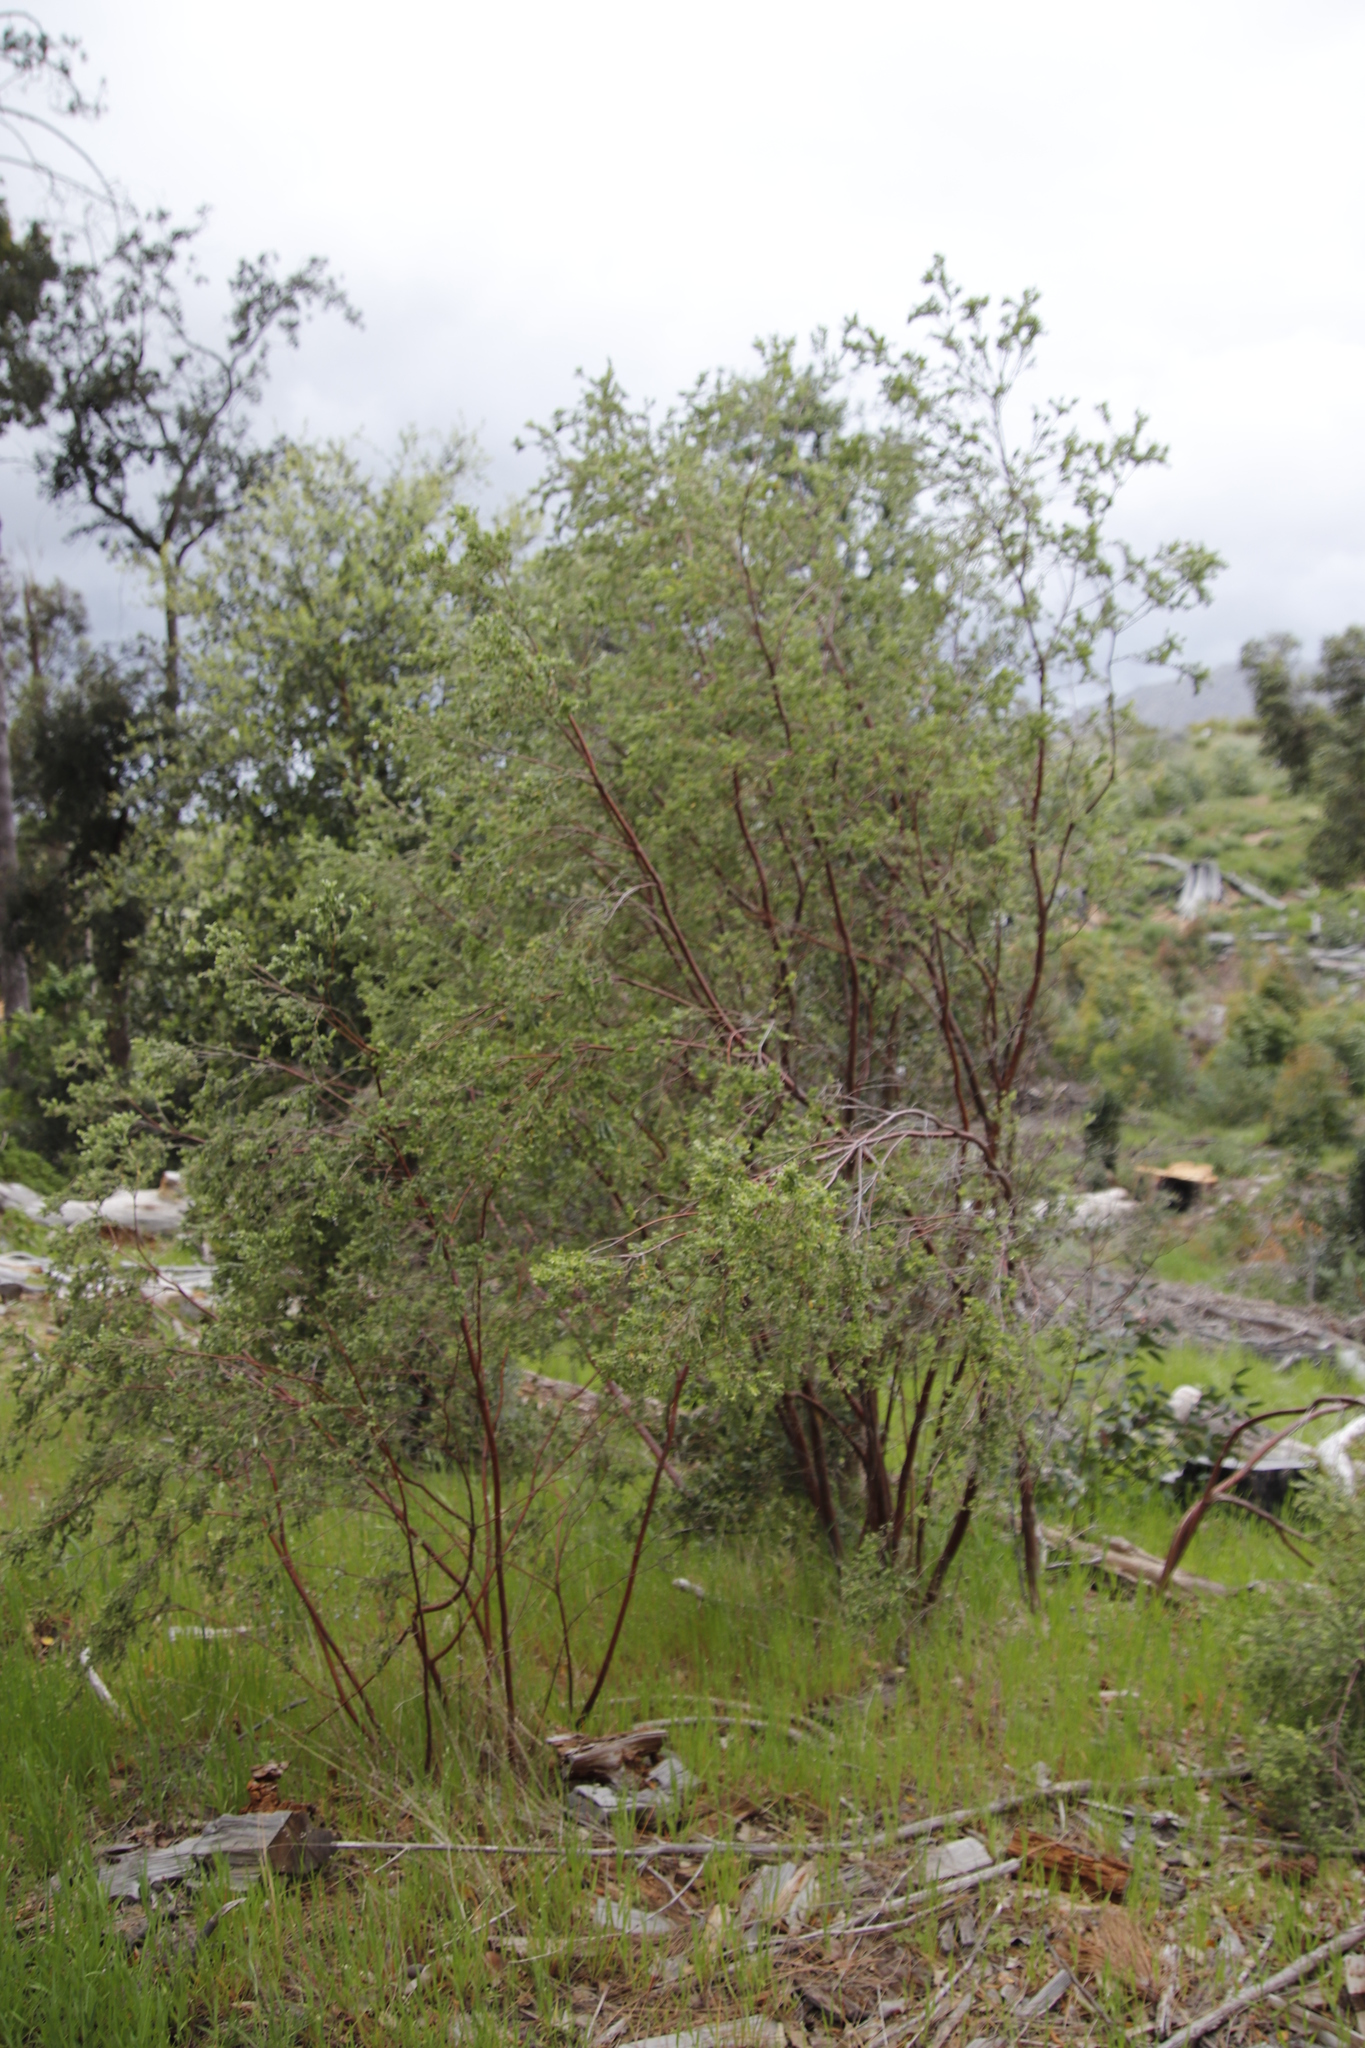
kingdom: Plantae
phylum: Tracheophyta
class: Magnoliopsida
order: Malvales
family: Thymelaeaceae
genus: Gnidia
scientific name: Gnidia sericea
